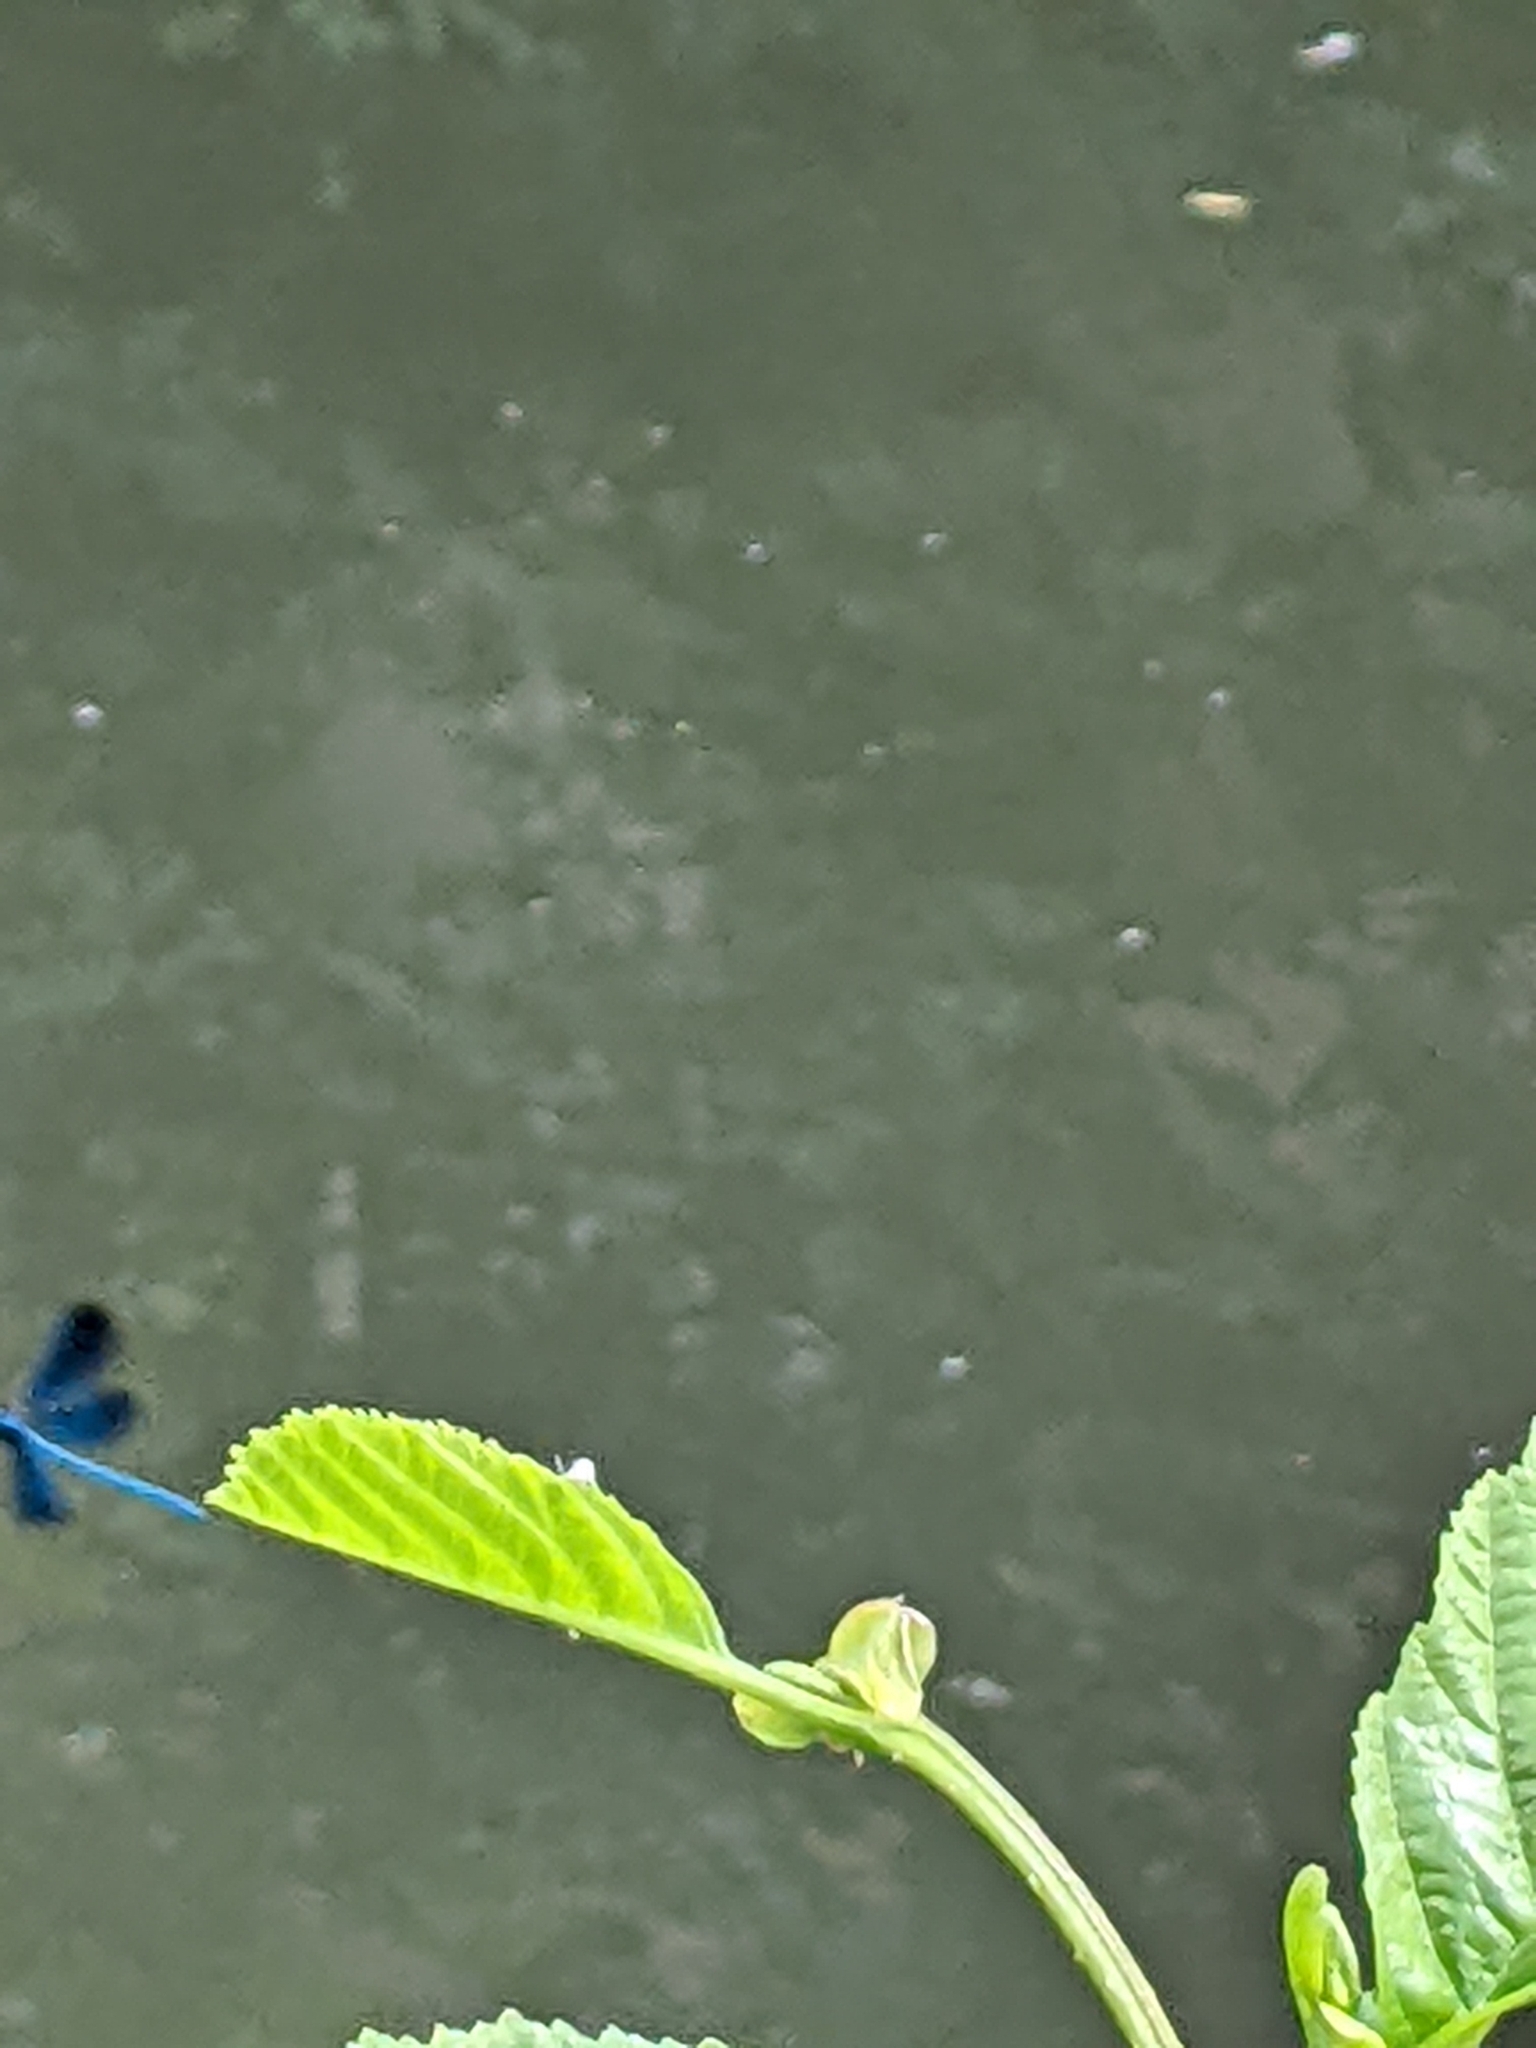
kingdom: Animalia
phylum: Arthropoda
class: Insecta
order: Odonata
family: Calopterygidae
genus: Calopteryx
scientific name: Calopteryx splendens
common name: Banded demoiselle
